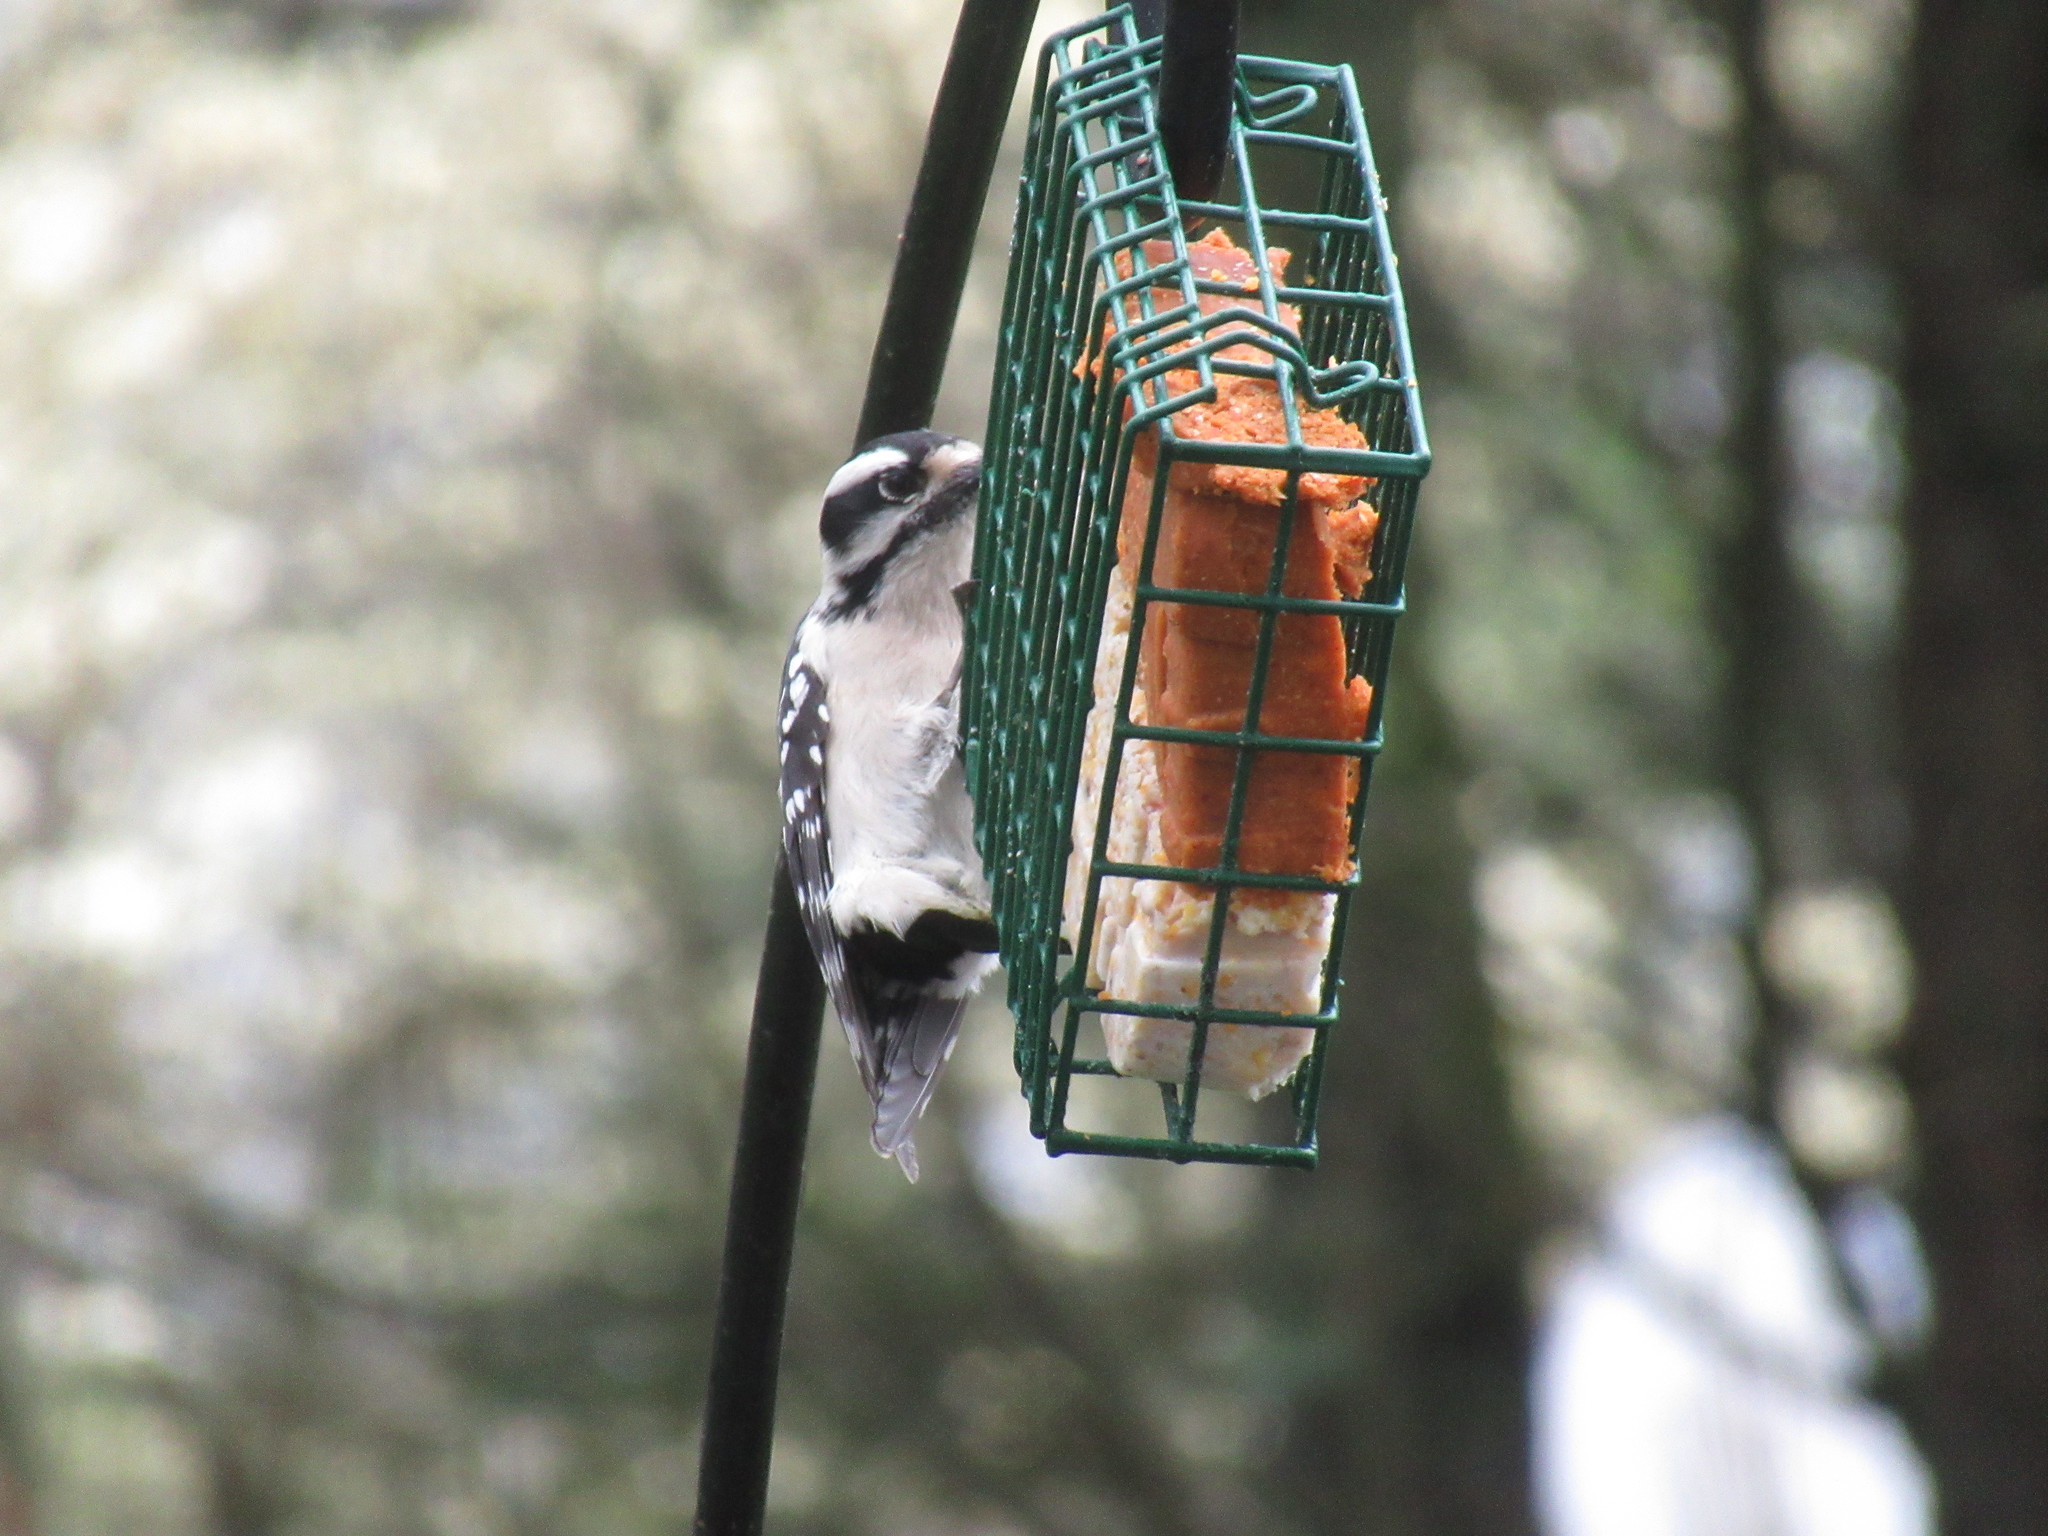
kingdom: Animalia
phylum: Chordata
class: Aves
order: Piciformes
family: Picidae
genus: Dryobates
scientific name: Dryobates pubescens
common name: Downy woodpecker
